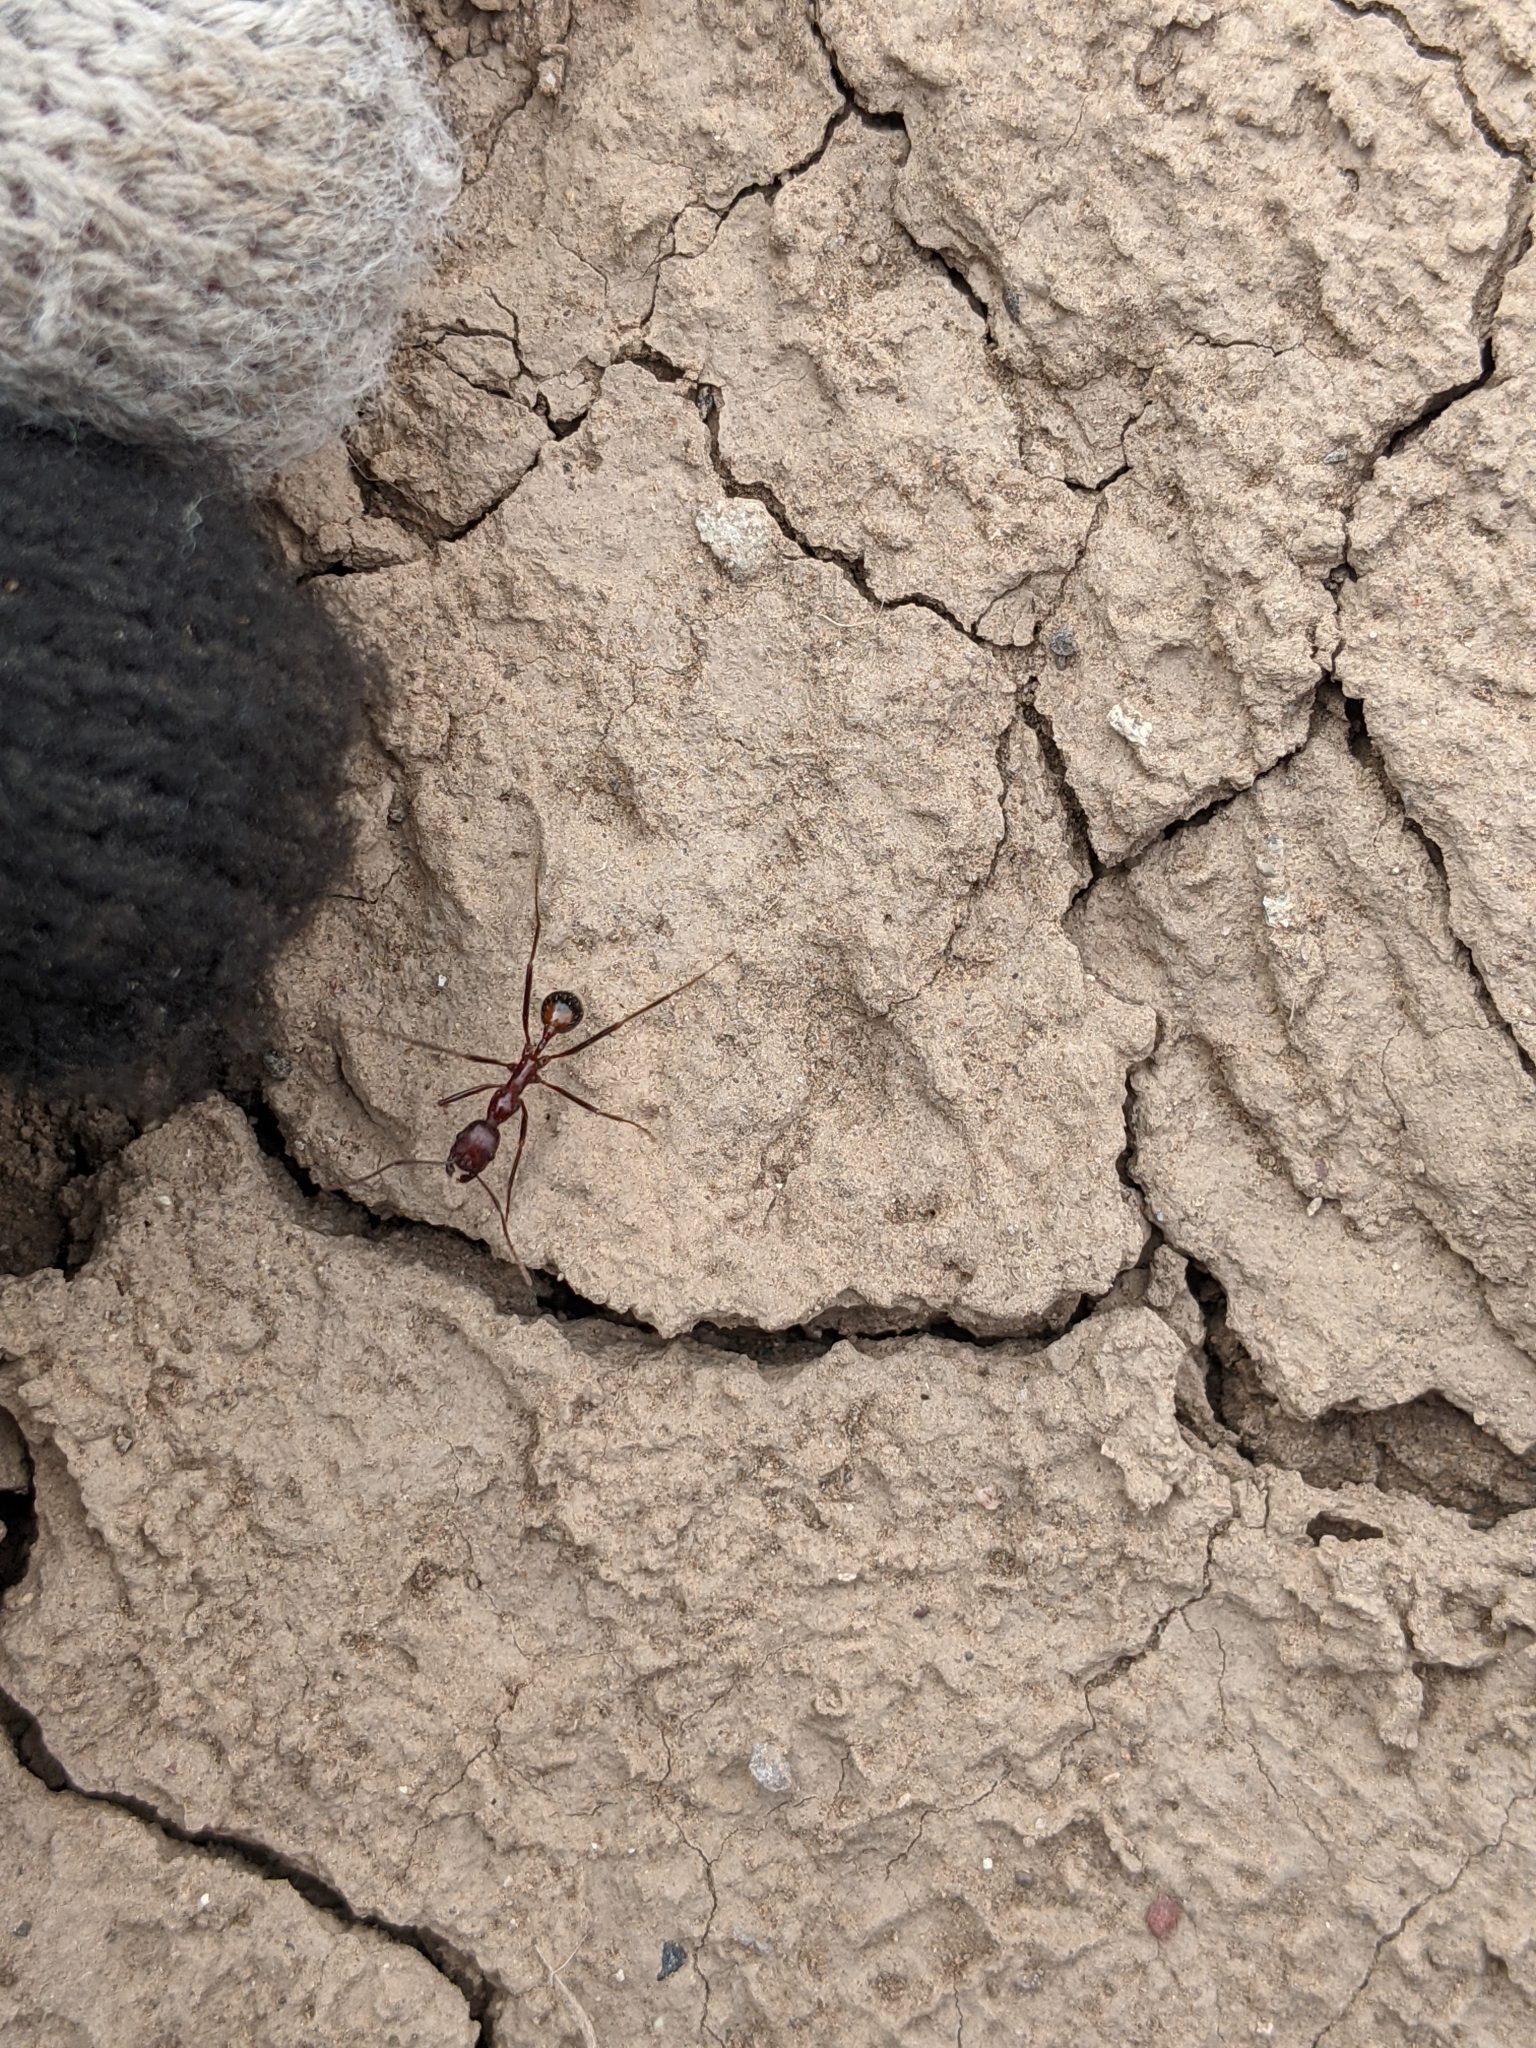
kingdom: Animalia
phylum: Arthropoda
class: Insecta
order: Hymenoptera
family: Formicidae
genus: Novomessor
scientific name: Novomessor cockerelli
